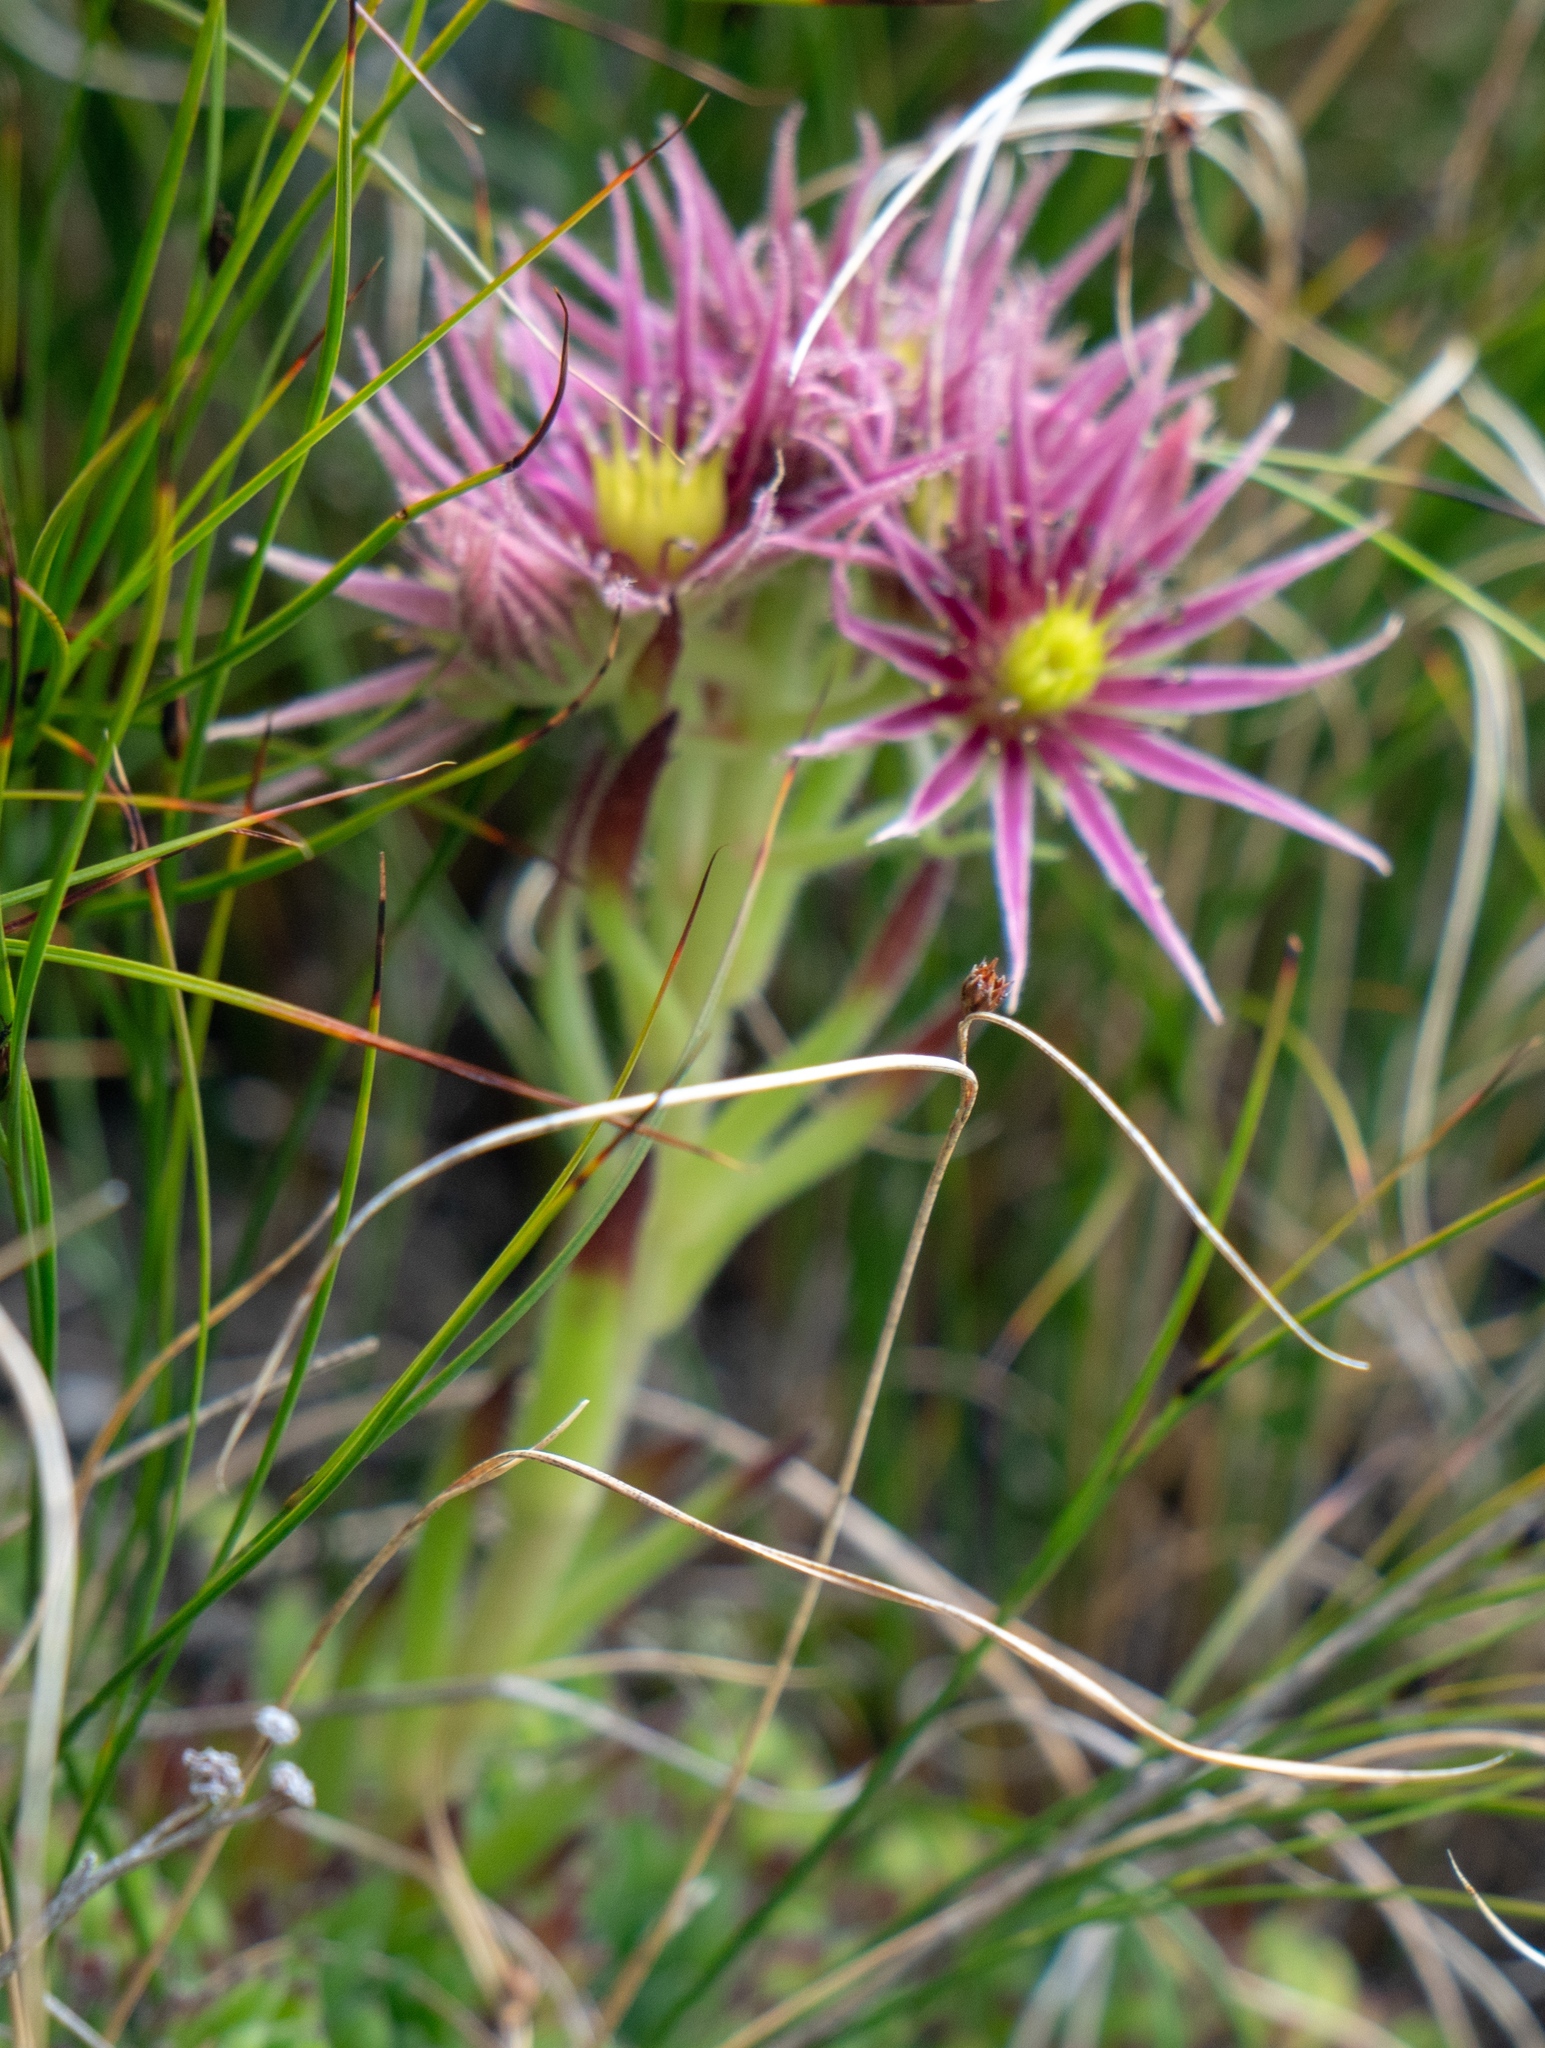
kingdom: Plantae
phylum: Tracheophyta
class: Magnoliopsida
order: Saxifragales
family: Crassulaceae
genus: Sempervivum
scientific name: Sempervivum montanum
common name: Mountain house-leek
